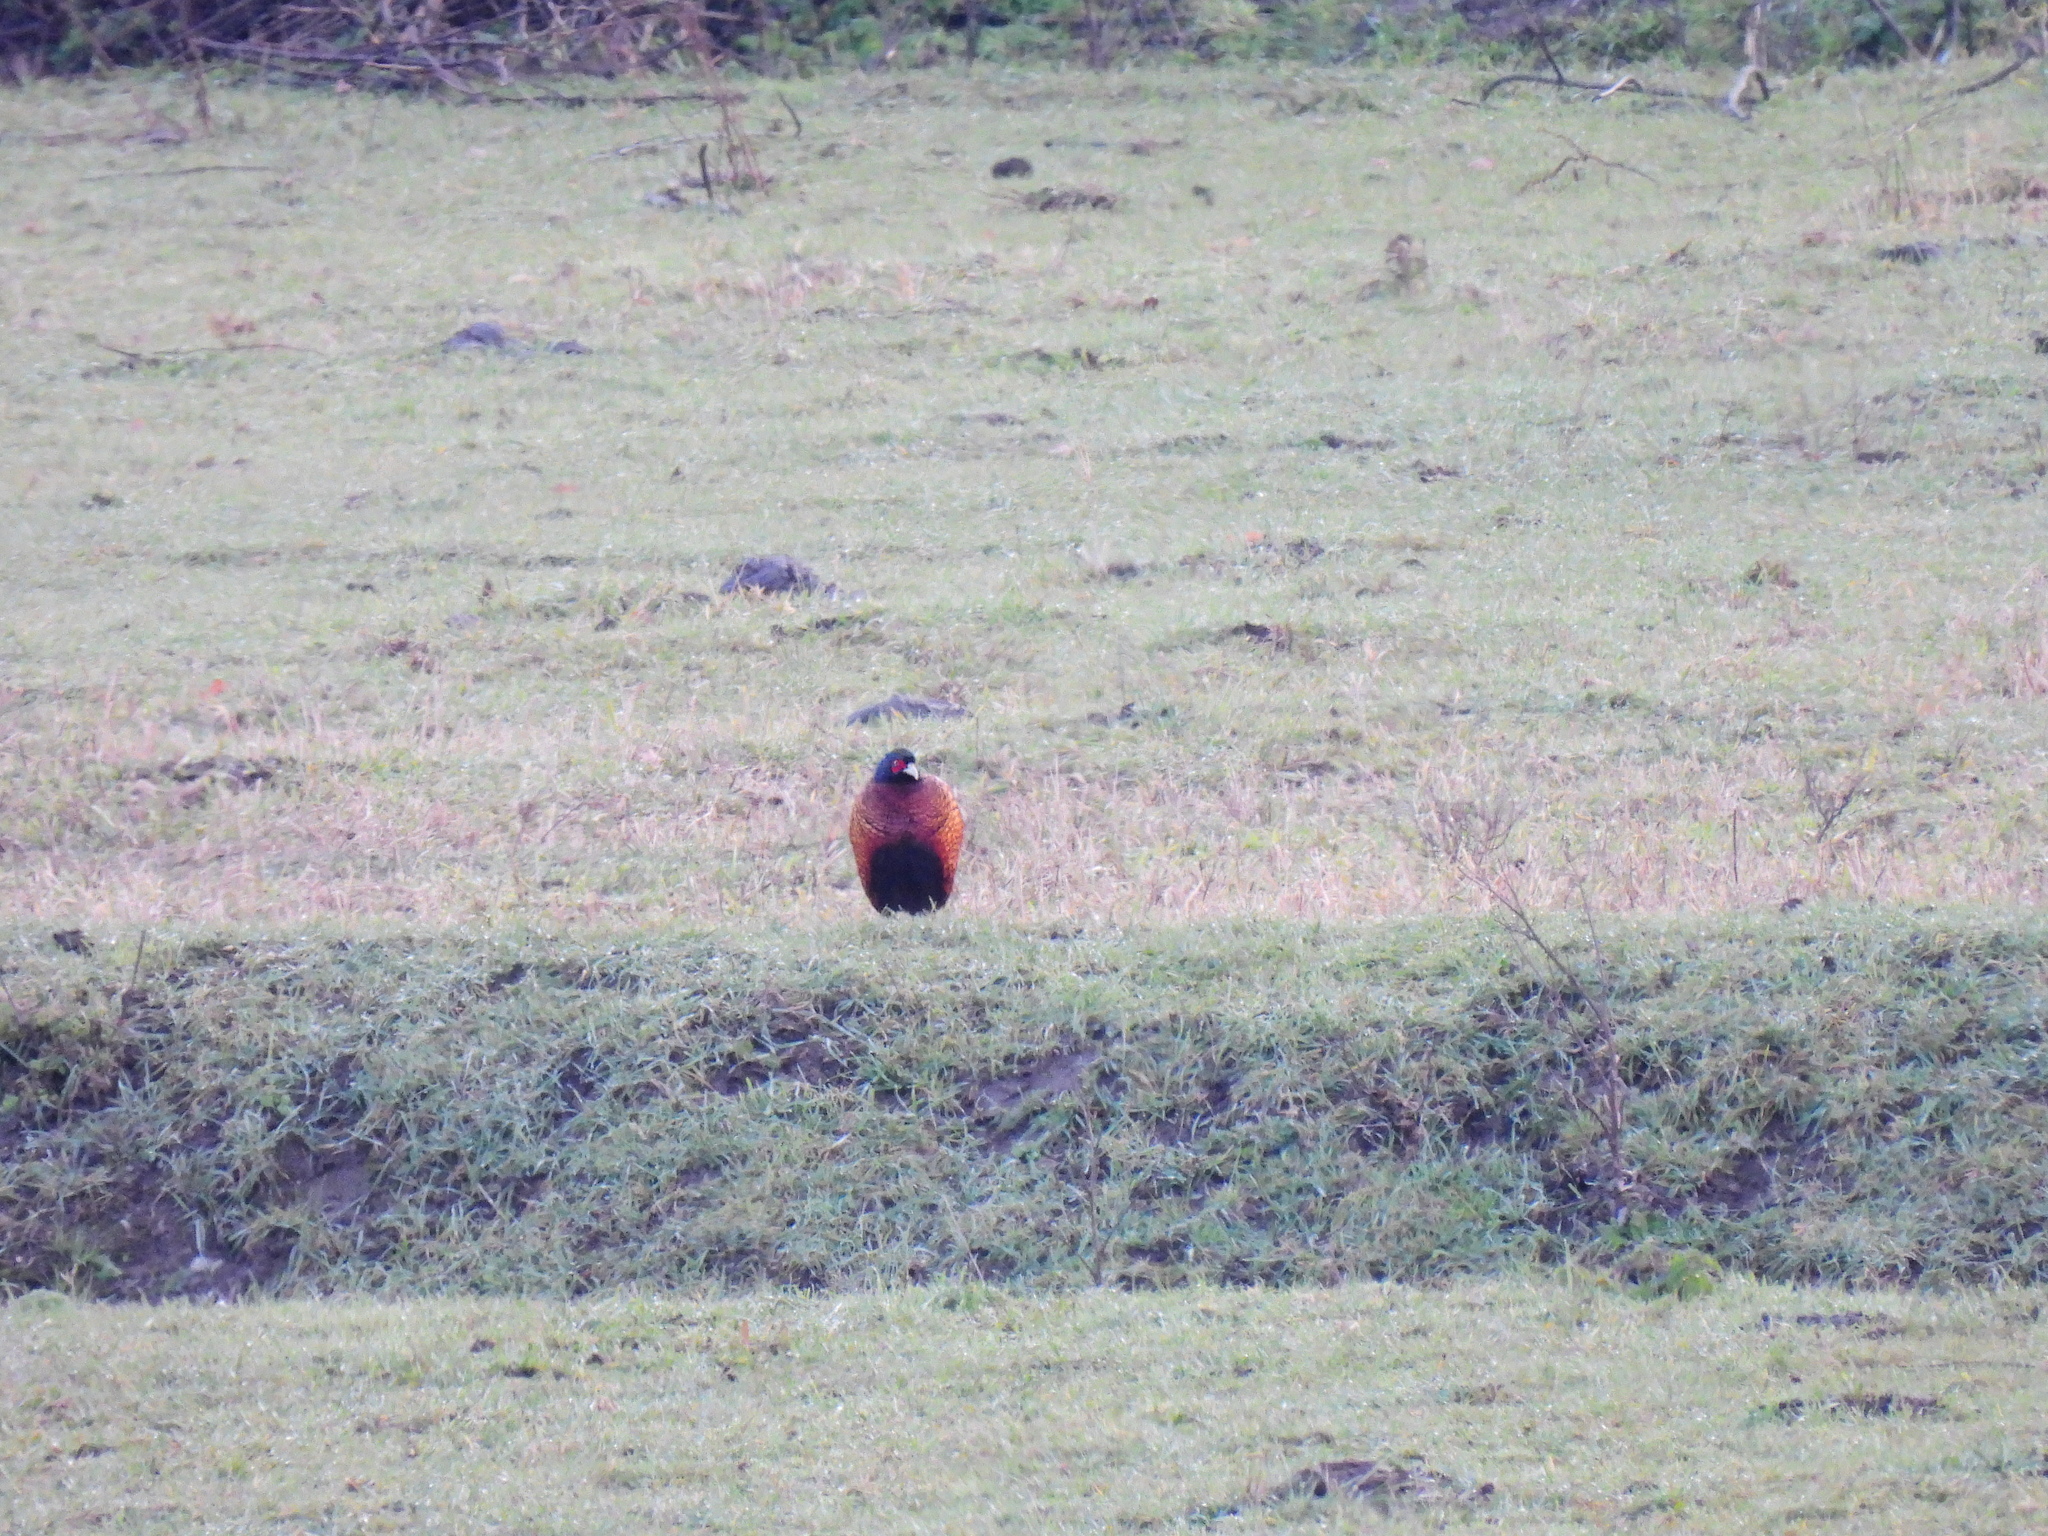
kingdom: Animalia
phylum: Chordata
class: Aves
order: Galliformes
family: Phasianidae
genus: Phasianus
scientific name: Phasianus colchicus
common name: Common pheasant
